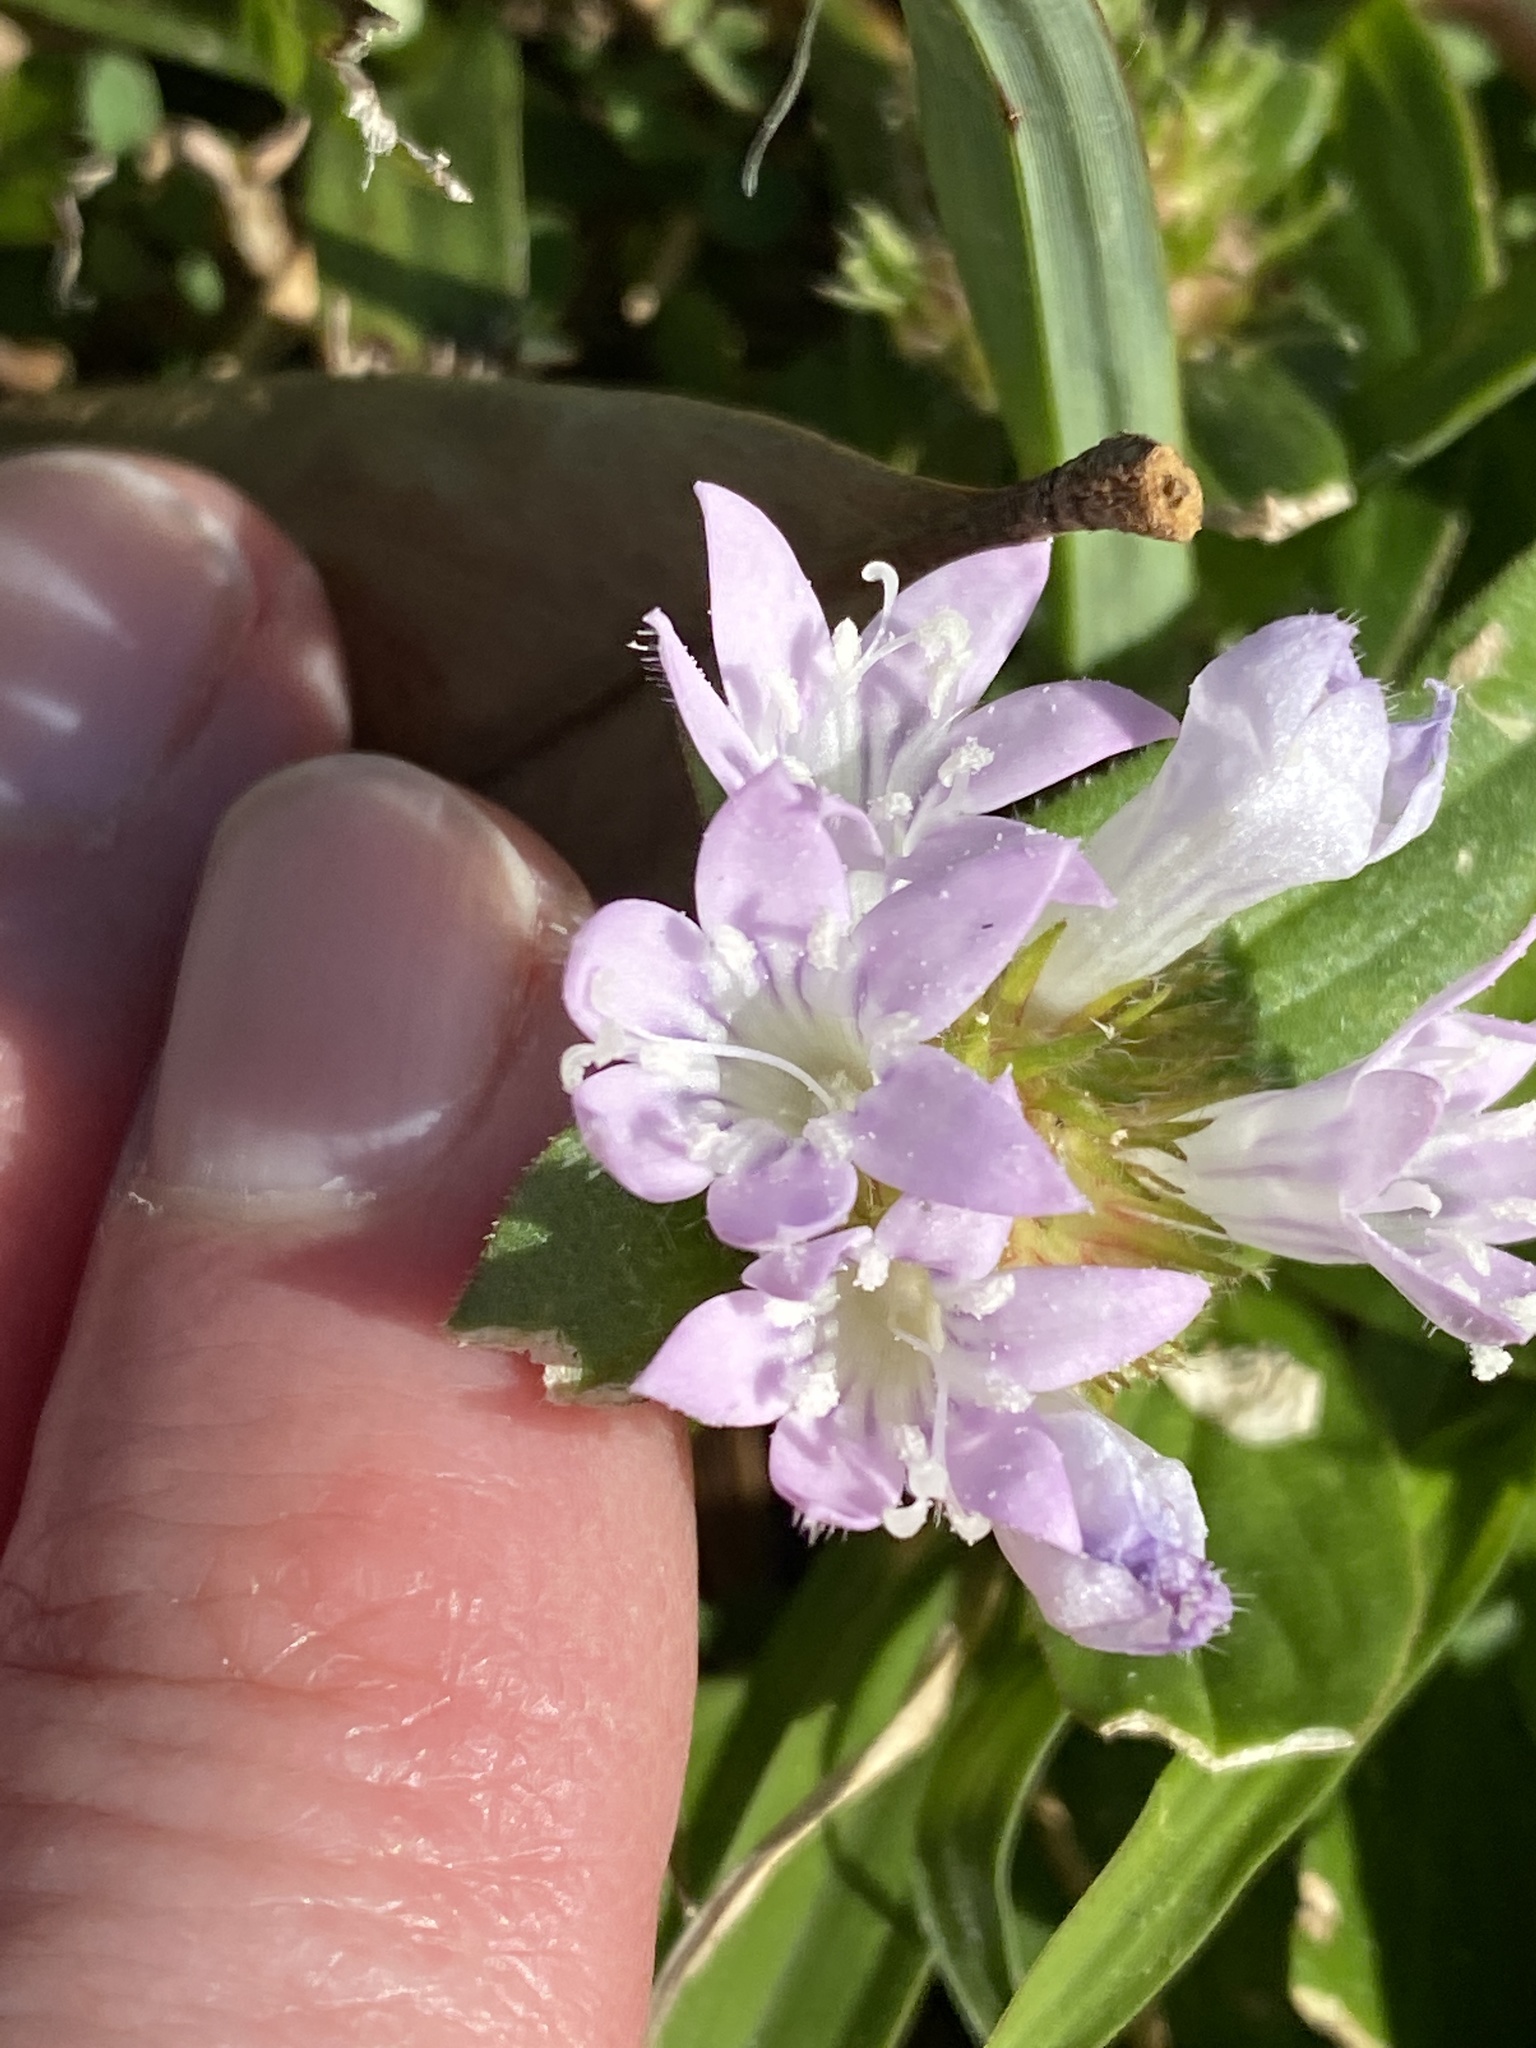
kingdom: Plantae
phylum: Tracheophyta
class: Magnoliopsida
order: Gentianales
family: Rubiaceae
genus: Richardia
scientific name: Richardia grandiflora
